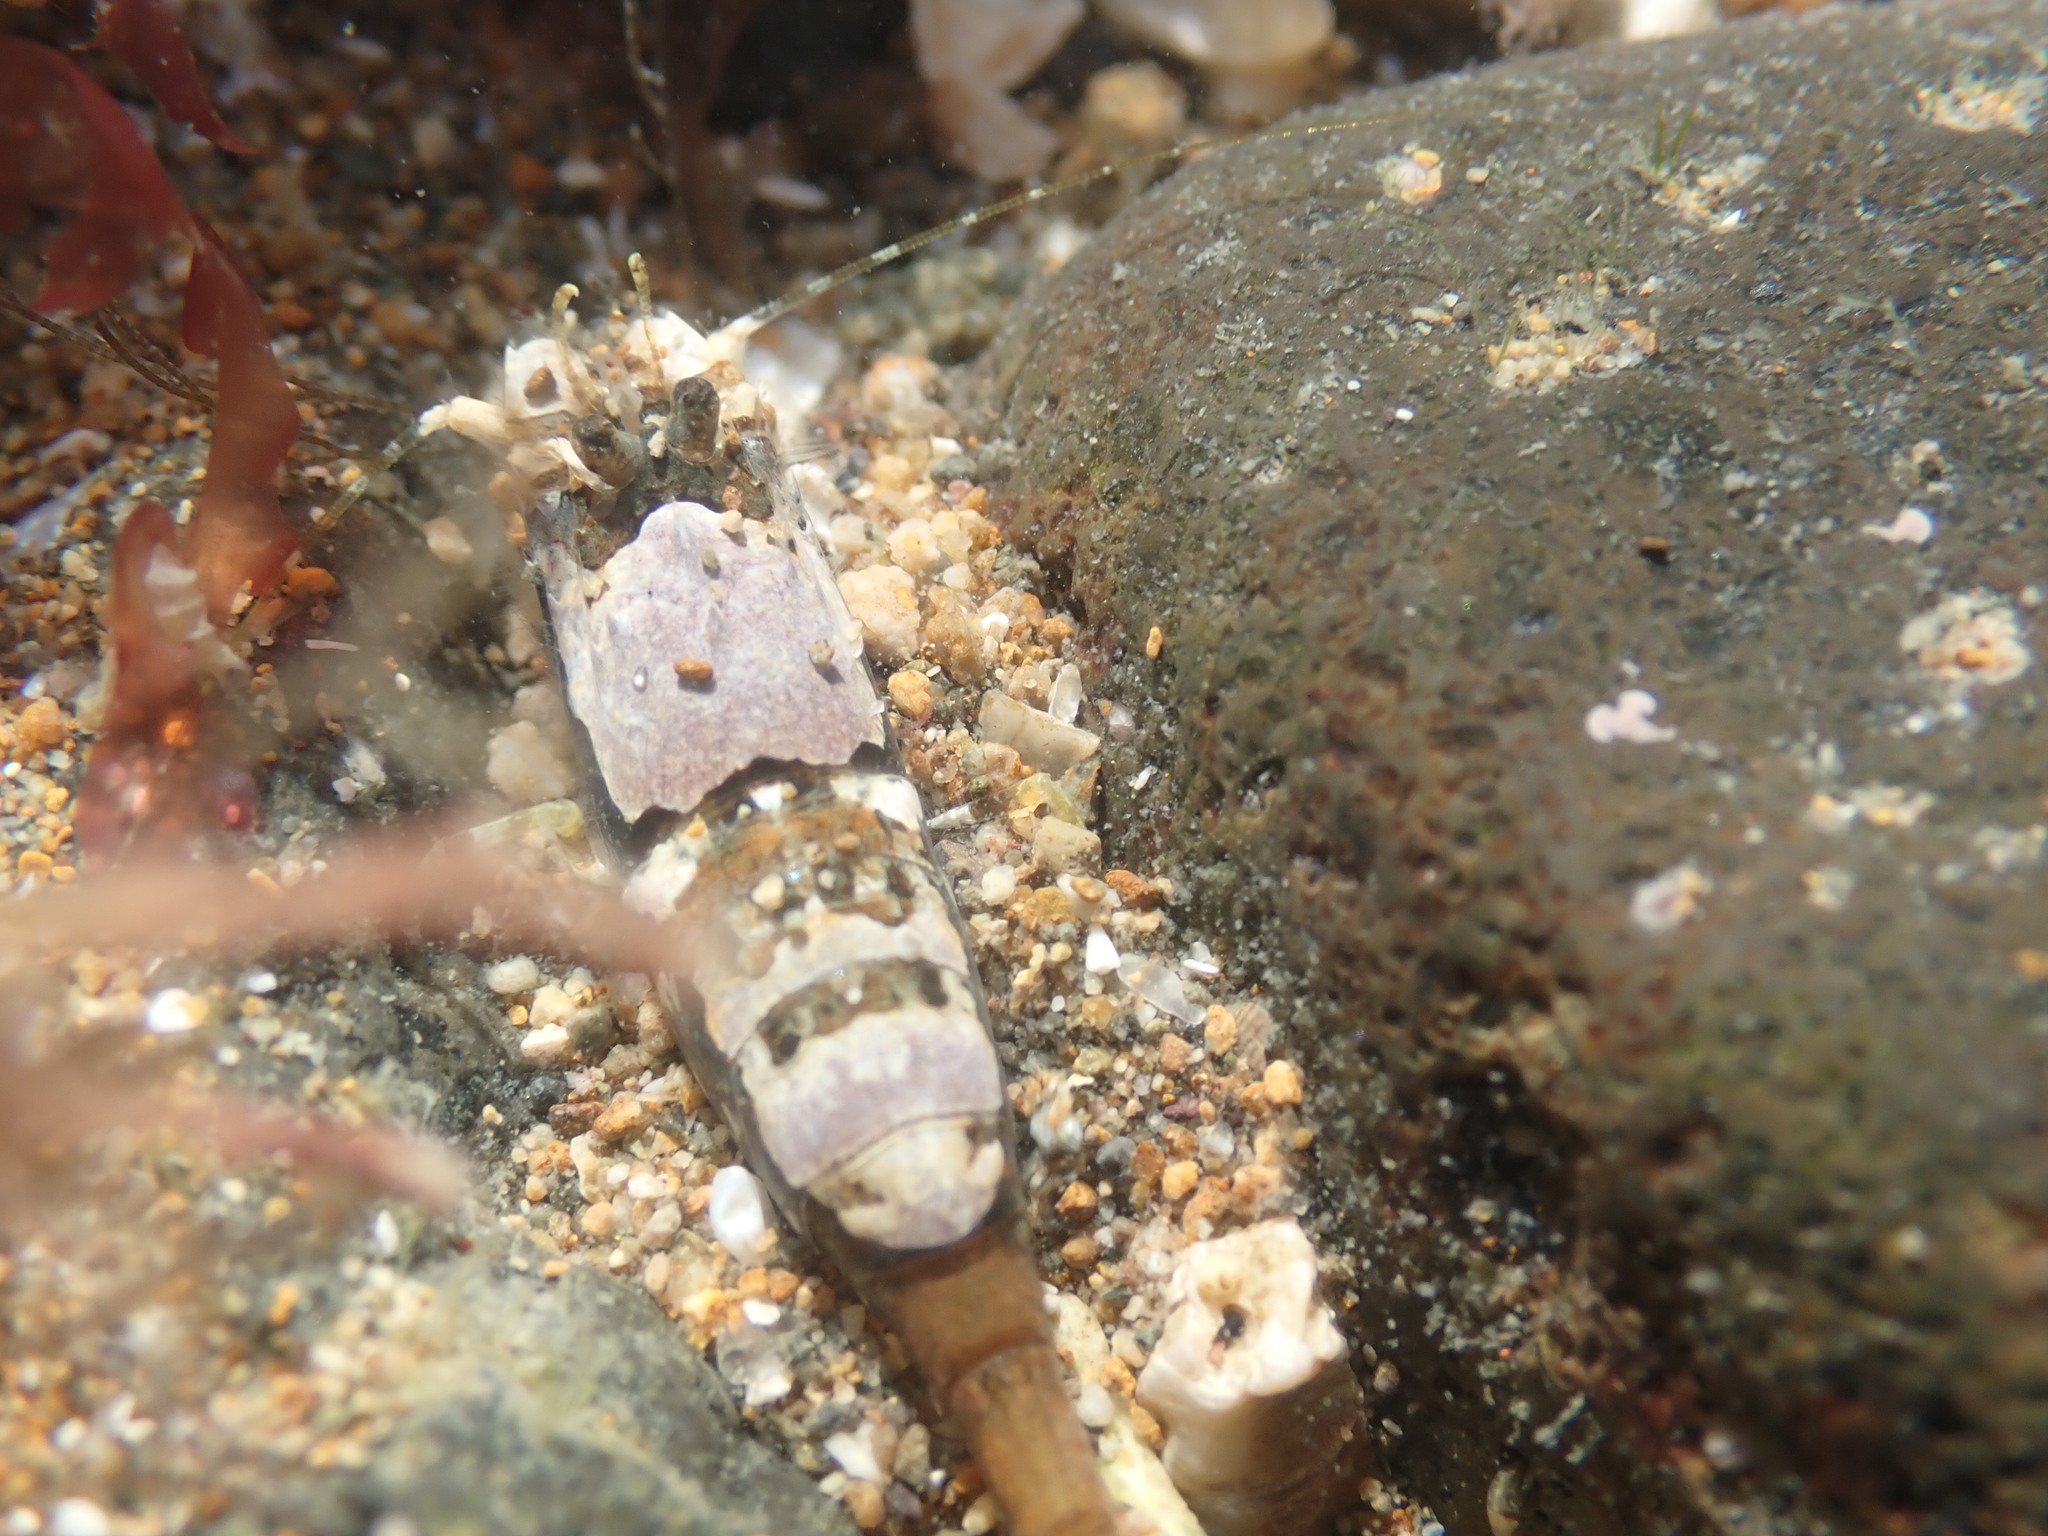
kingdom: Animalia
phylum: Arthropoda
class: Malacostraca
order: Decapoda
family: Crangonidae
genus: Philocheras
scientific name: Philocheras australis
